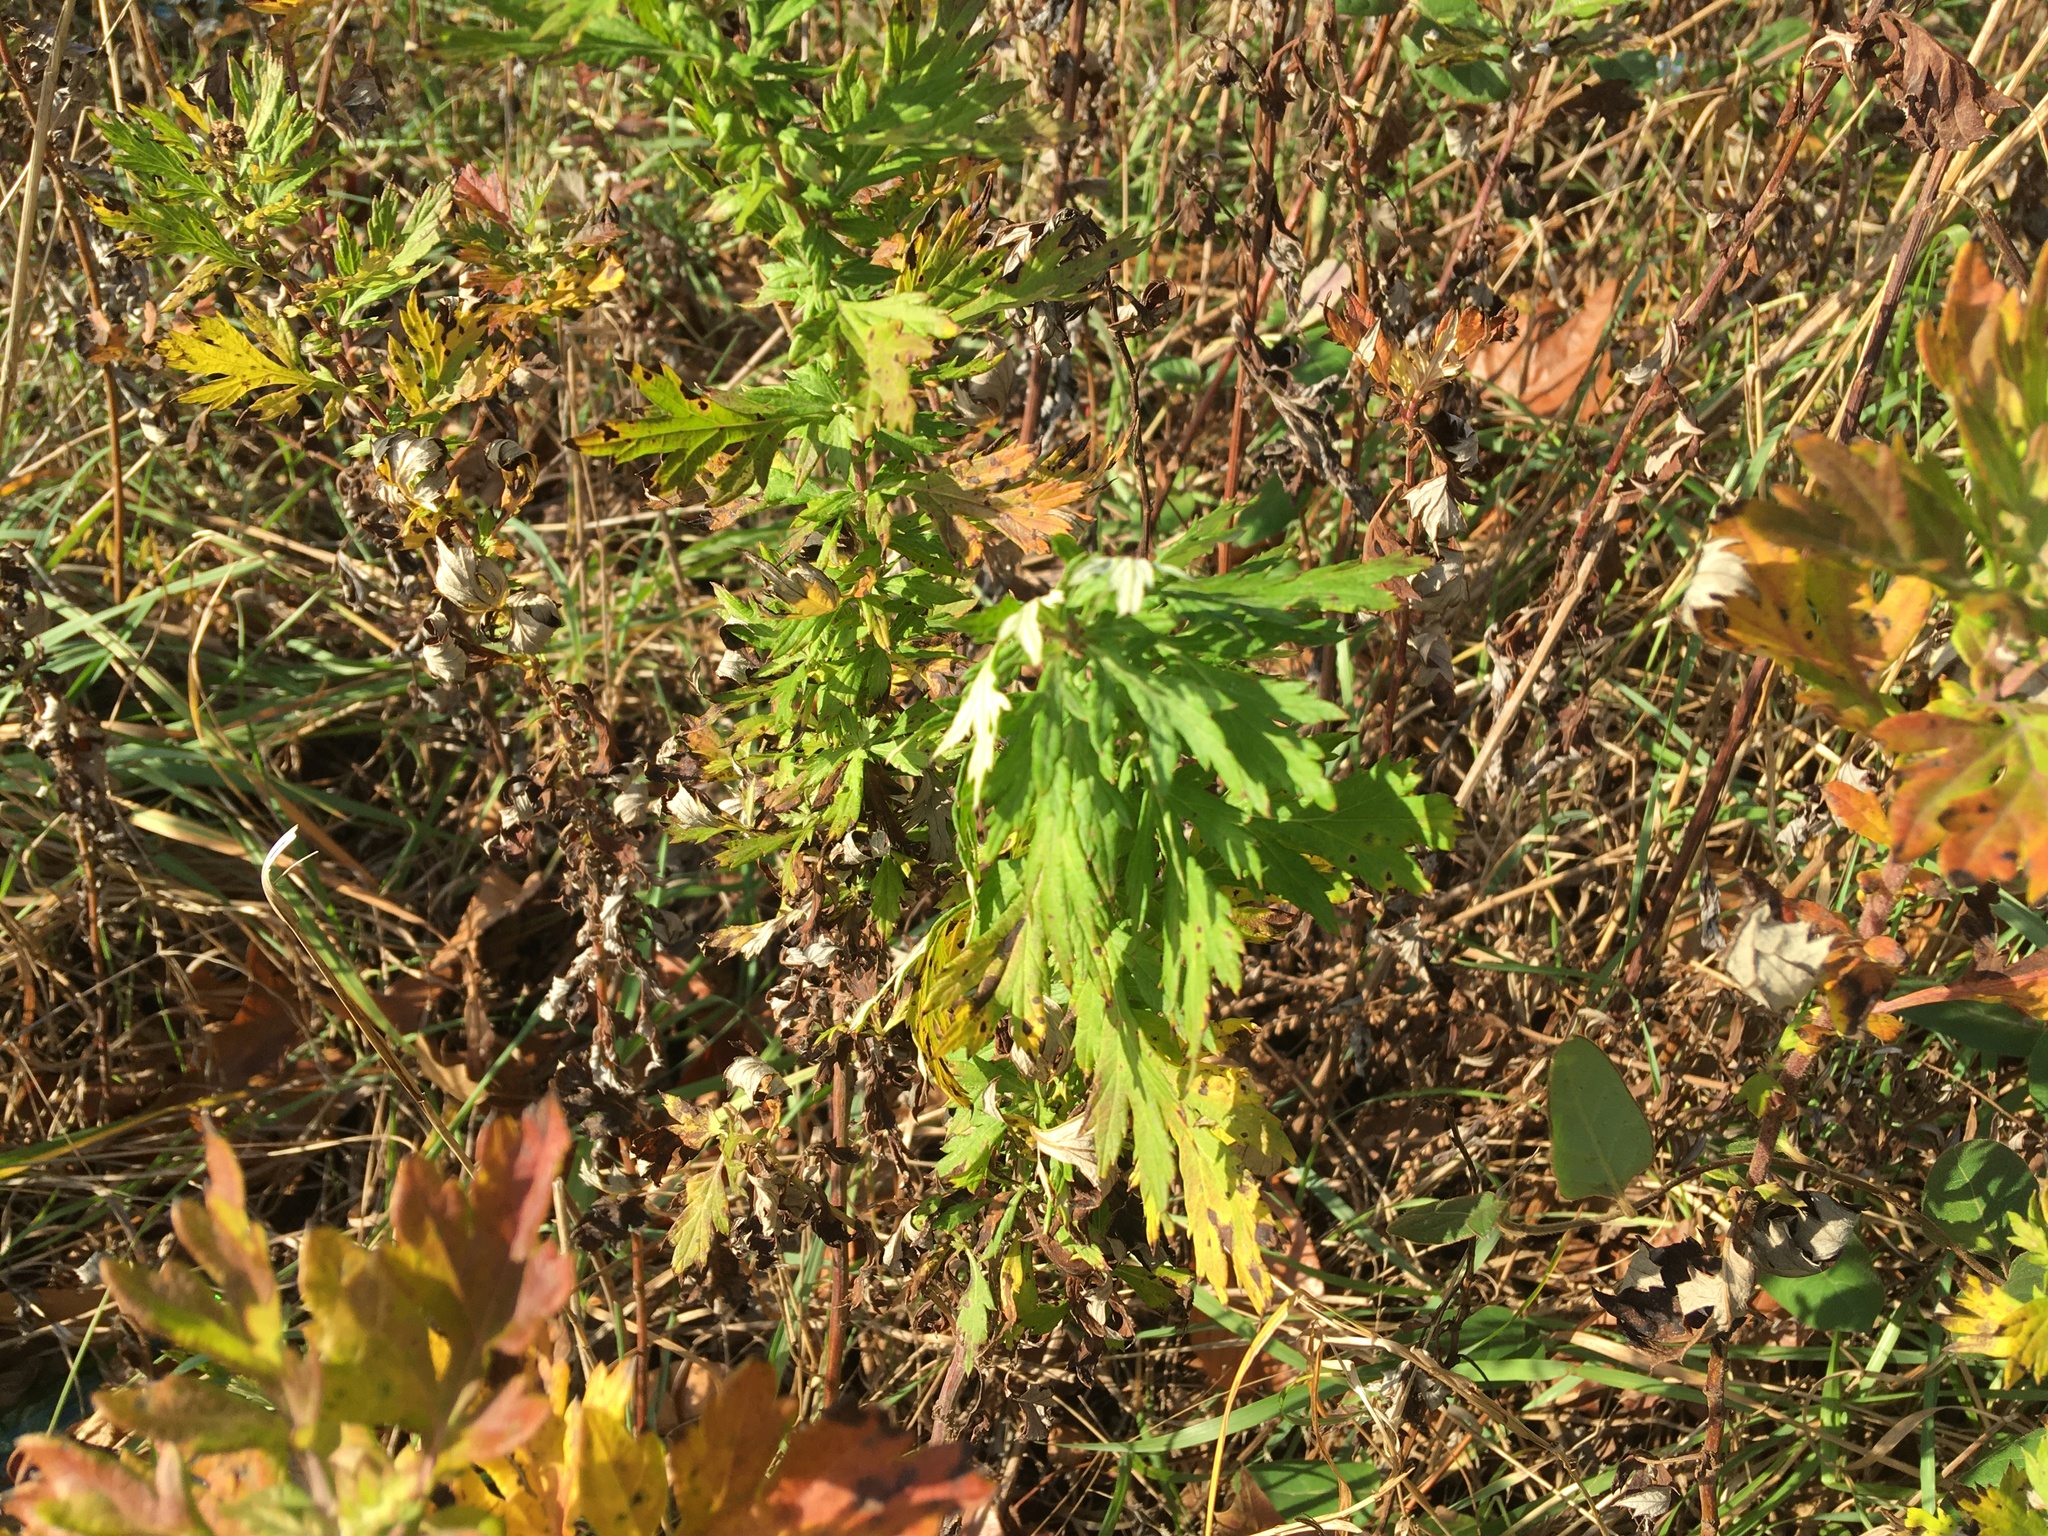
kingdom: Plantae
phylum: Tracheophyta
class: Magnoliopsida
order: Asterales
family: Asteraceae
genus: Artemisia
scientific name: Artemisia vulgaris
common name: Mugwort
